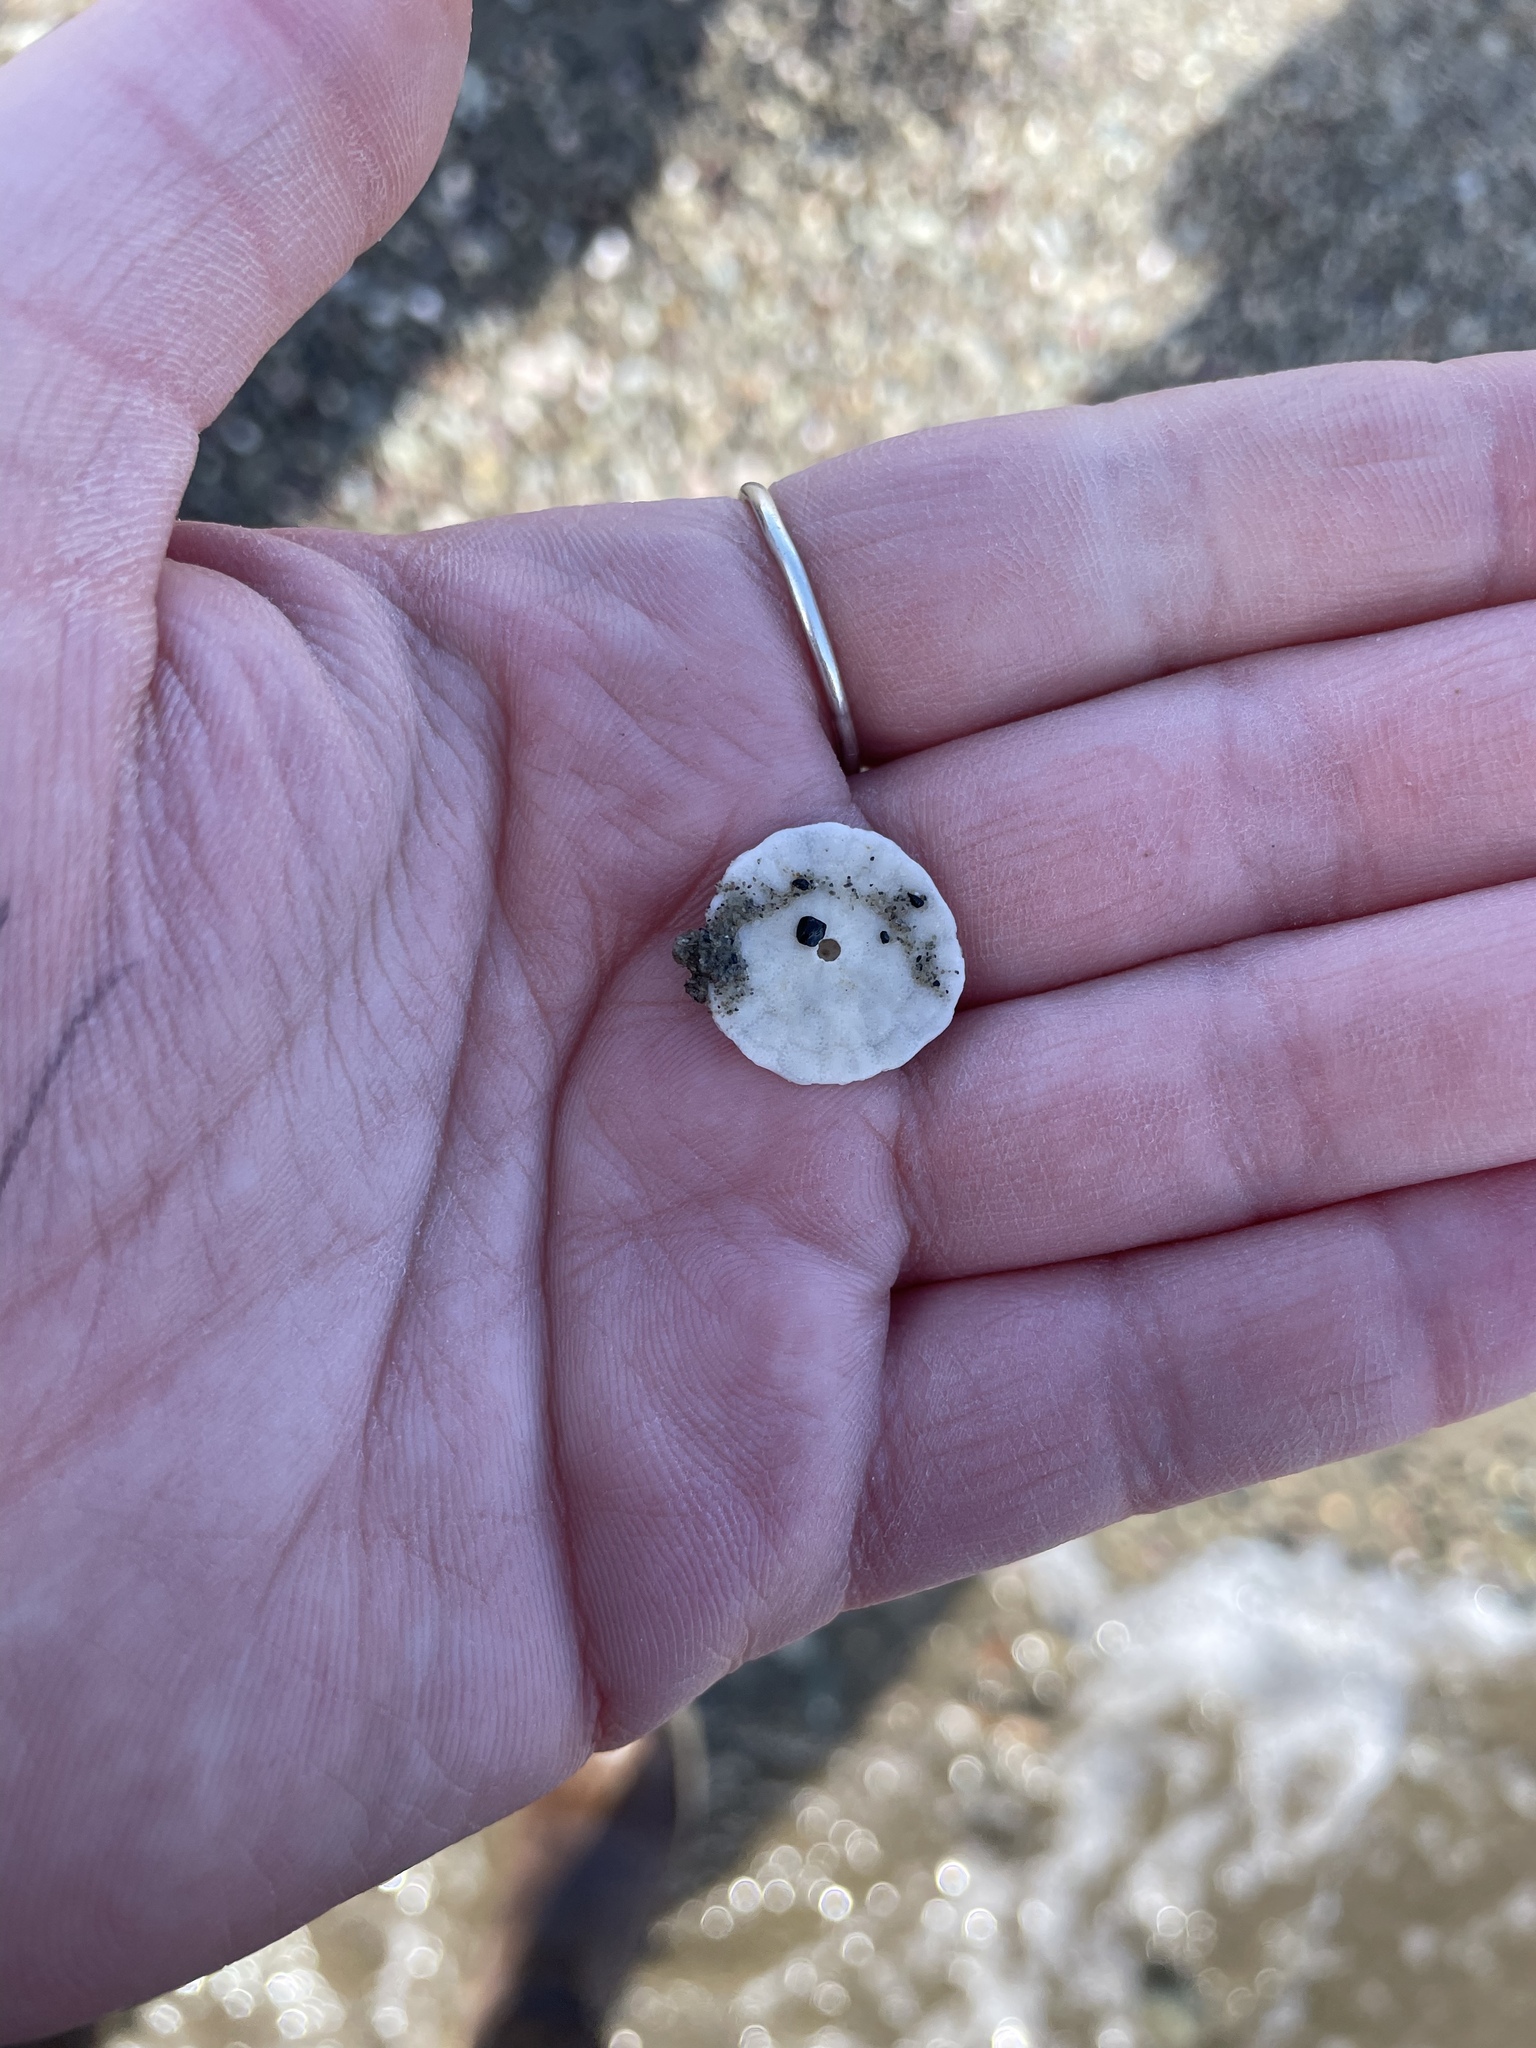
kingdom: Animalia
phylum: Echinodermata
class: Echinoidea
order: Echinolampadacea
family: Echinarachniidae
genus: Echinarachnius
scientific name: Echinarachnius parma
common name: Common sand dollar
